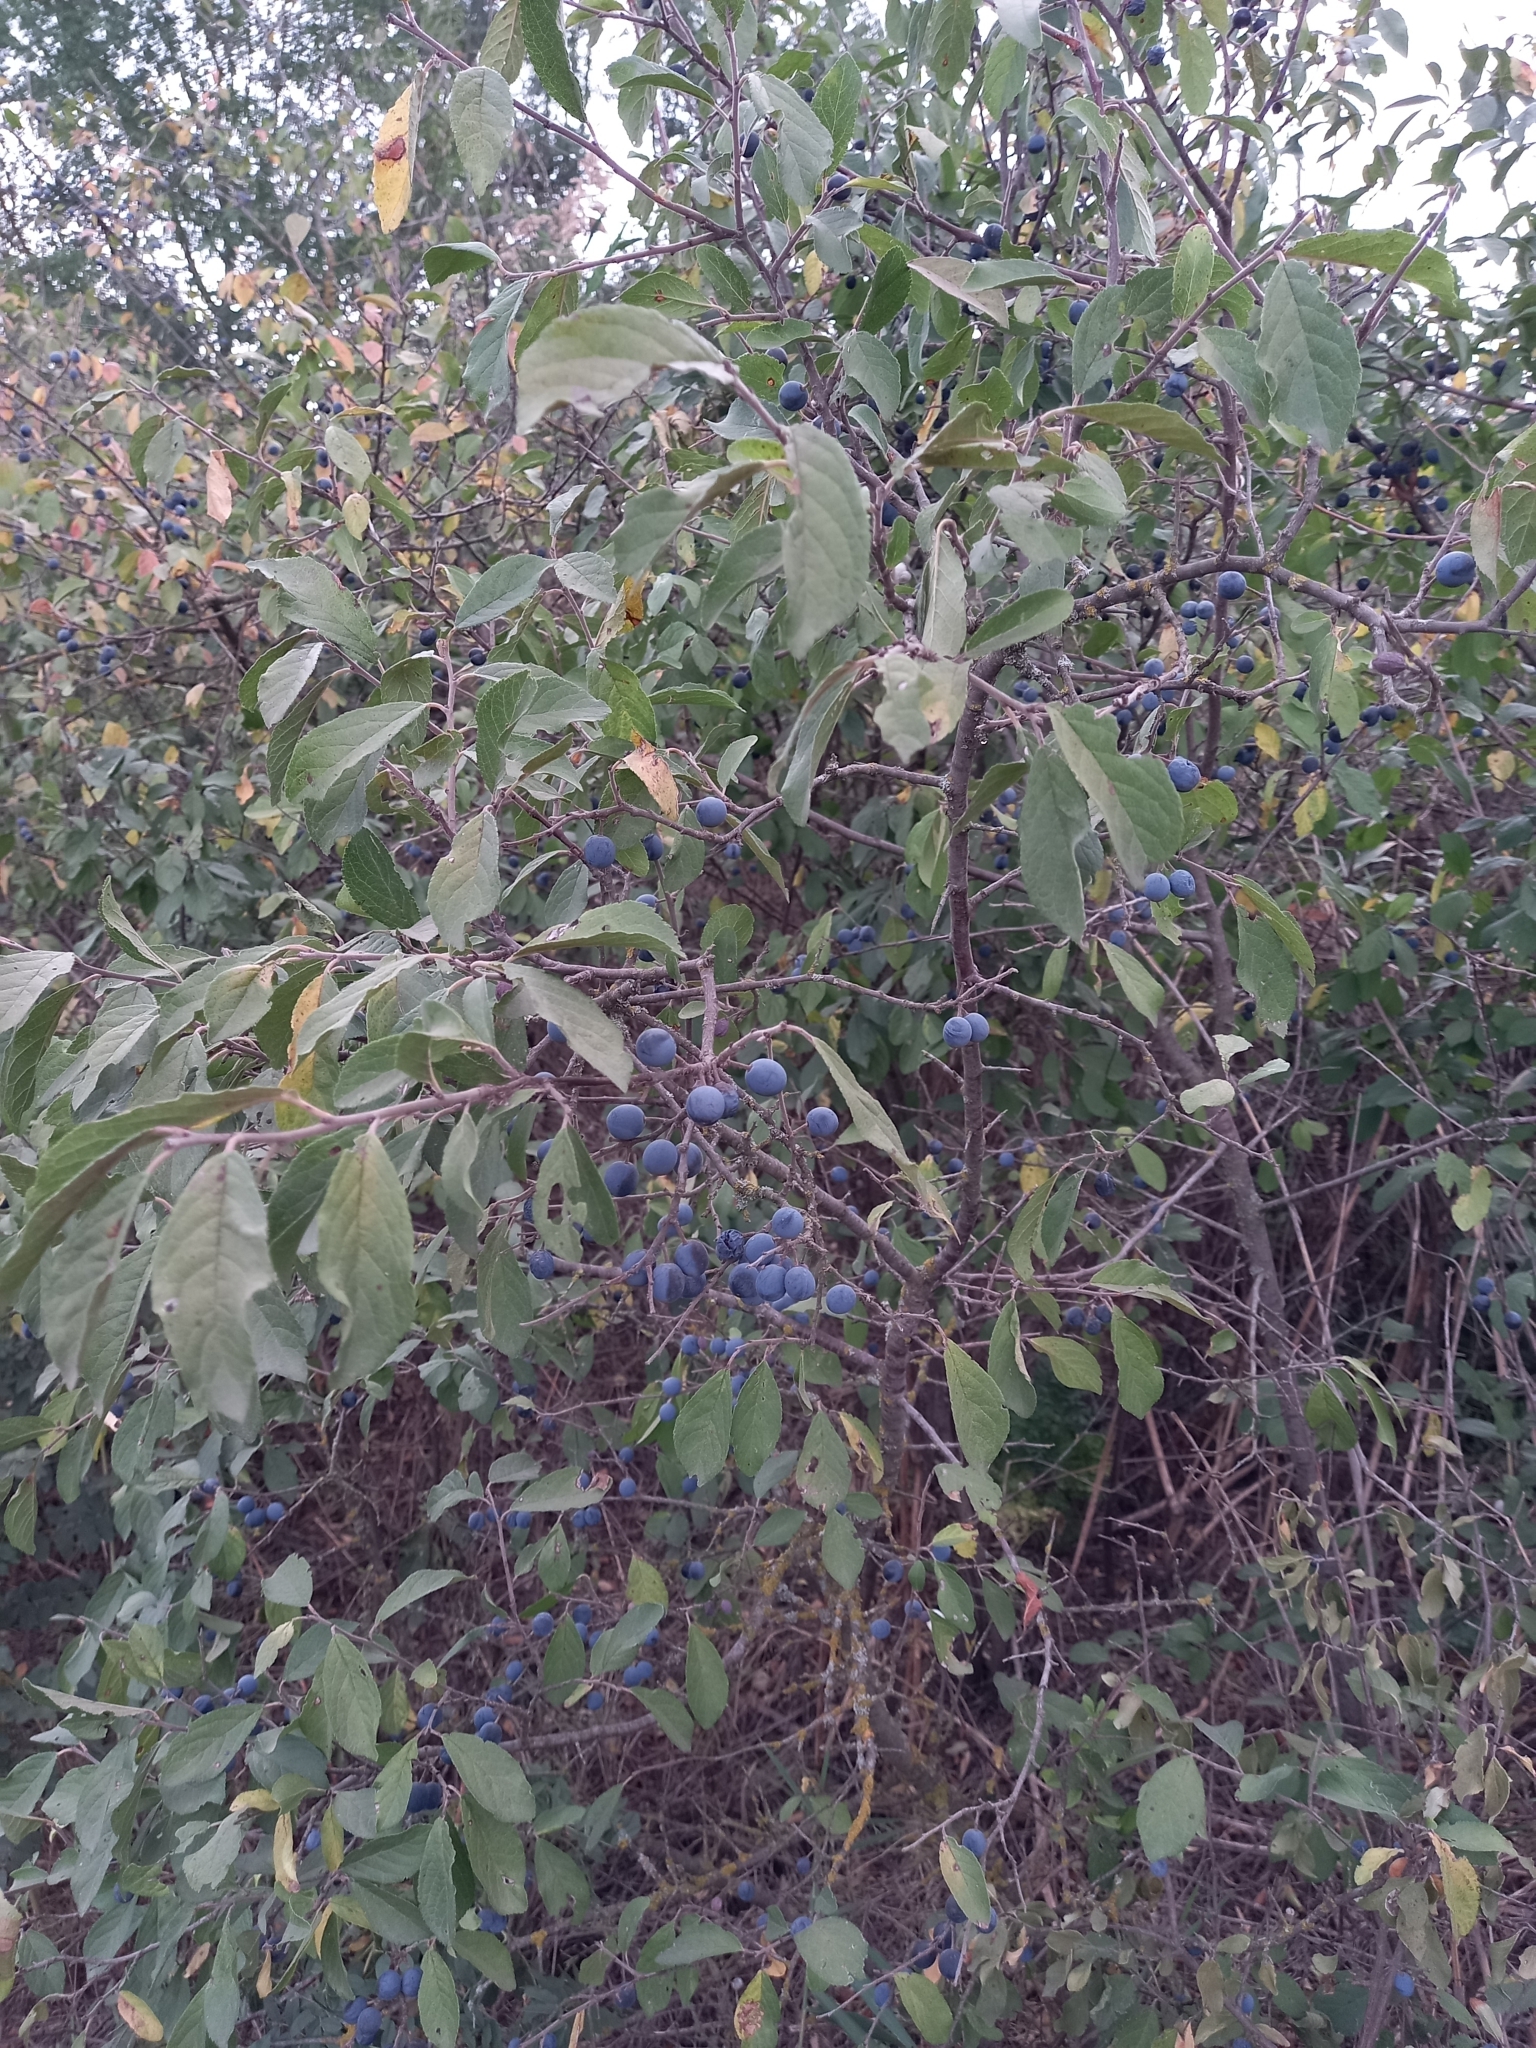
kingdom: Plantae
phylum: Tracheophyta
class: Magnoliopsida
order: Rosales
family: Rosaceae
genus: Prunus
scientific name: Prunus spinosa
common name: Blackthorn
